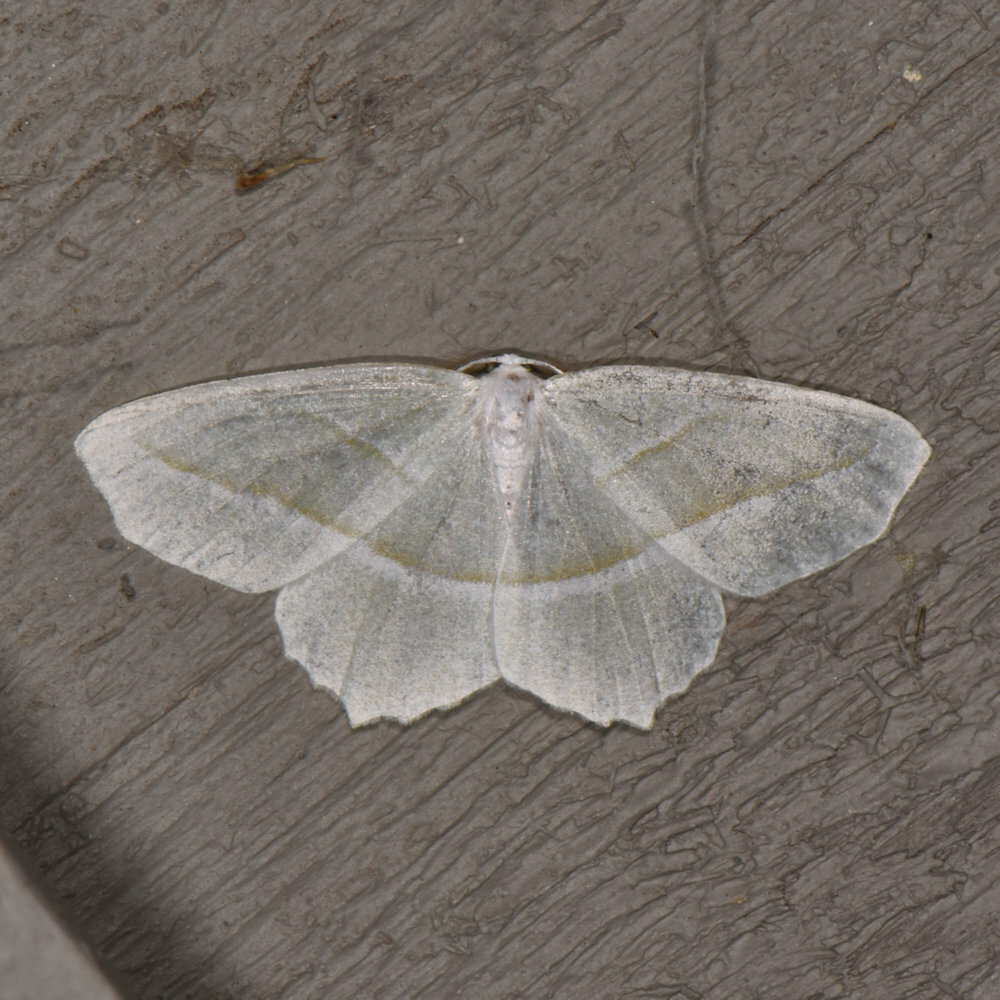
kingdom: Animalia
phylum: Arthropoda
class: Insecta
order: Lepidoptera
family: Geometridae
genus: Campaea
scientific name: Campaea perlata
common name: Fringed looper
